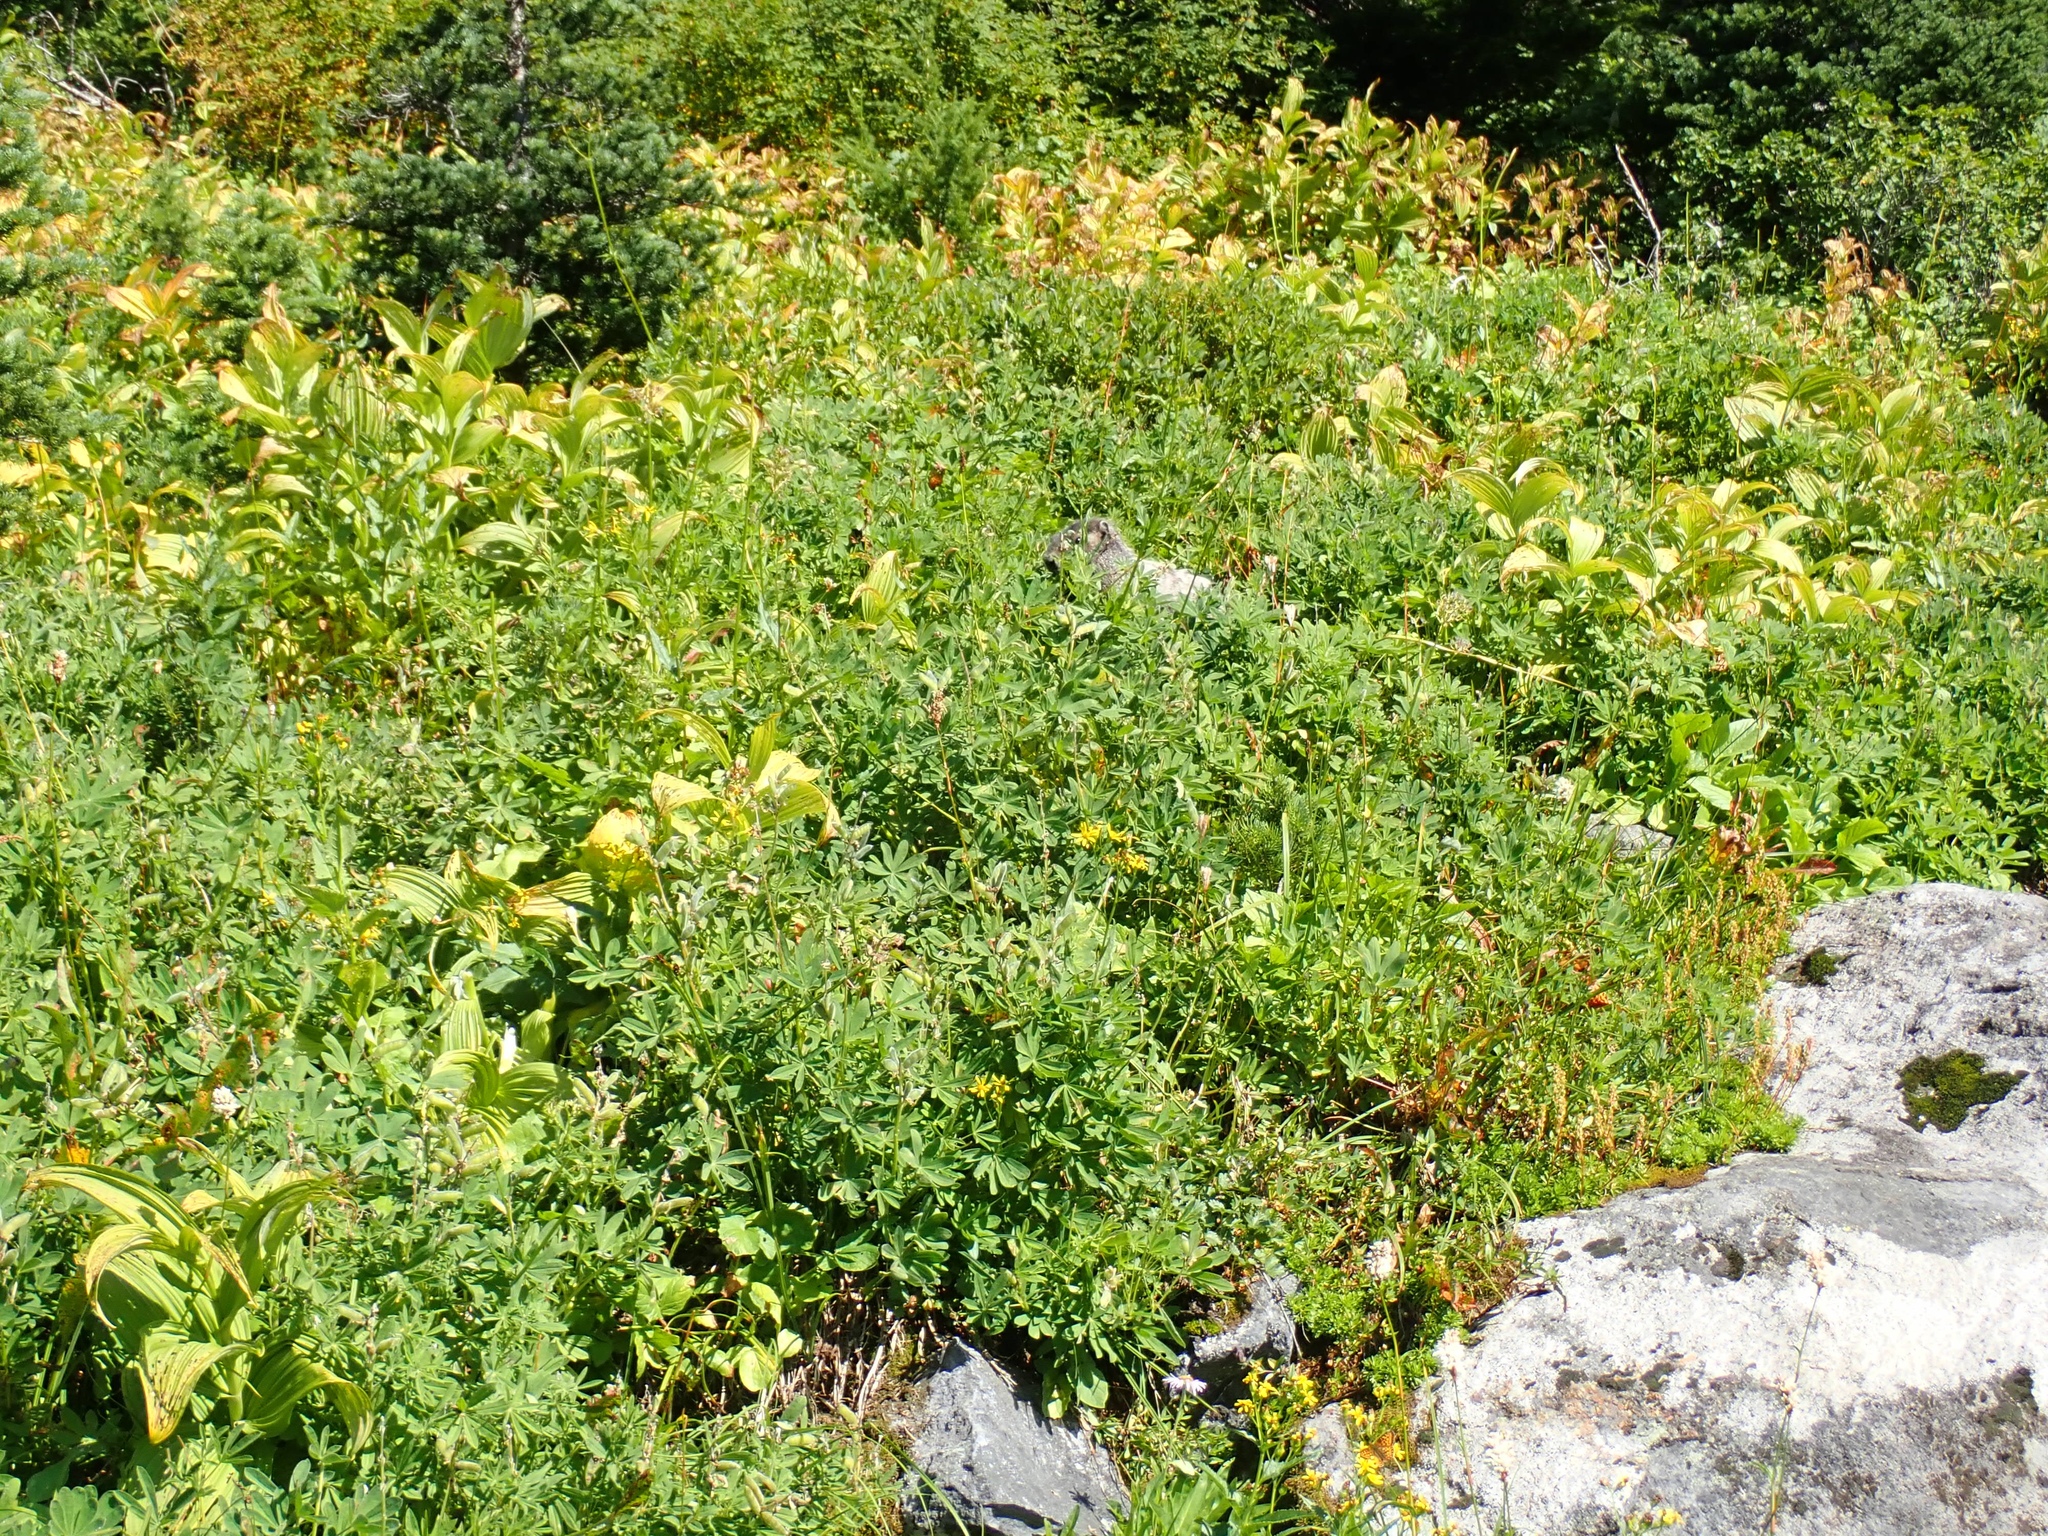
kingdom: Animalia
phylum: Chordata
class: Mammalia
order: Rodentia
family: Sciuridae
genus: Marmota
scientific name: Marmota caligata
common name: Hoary marmot
